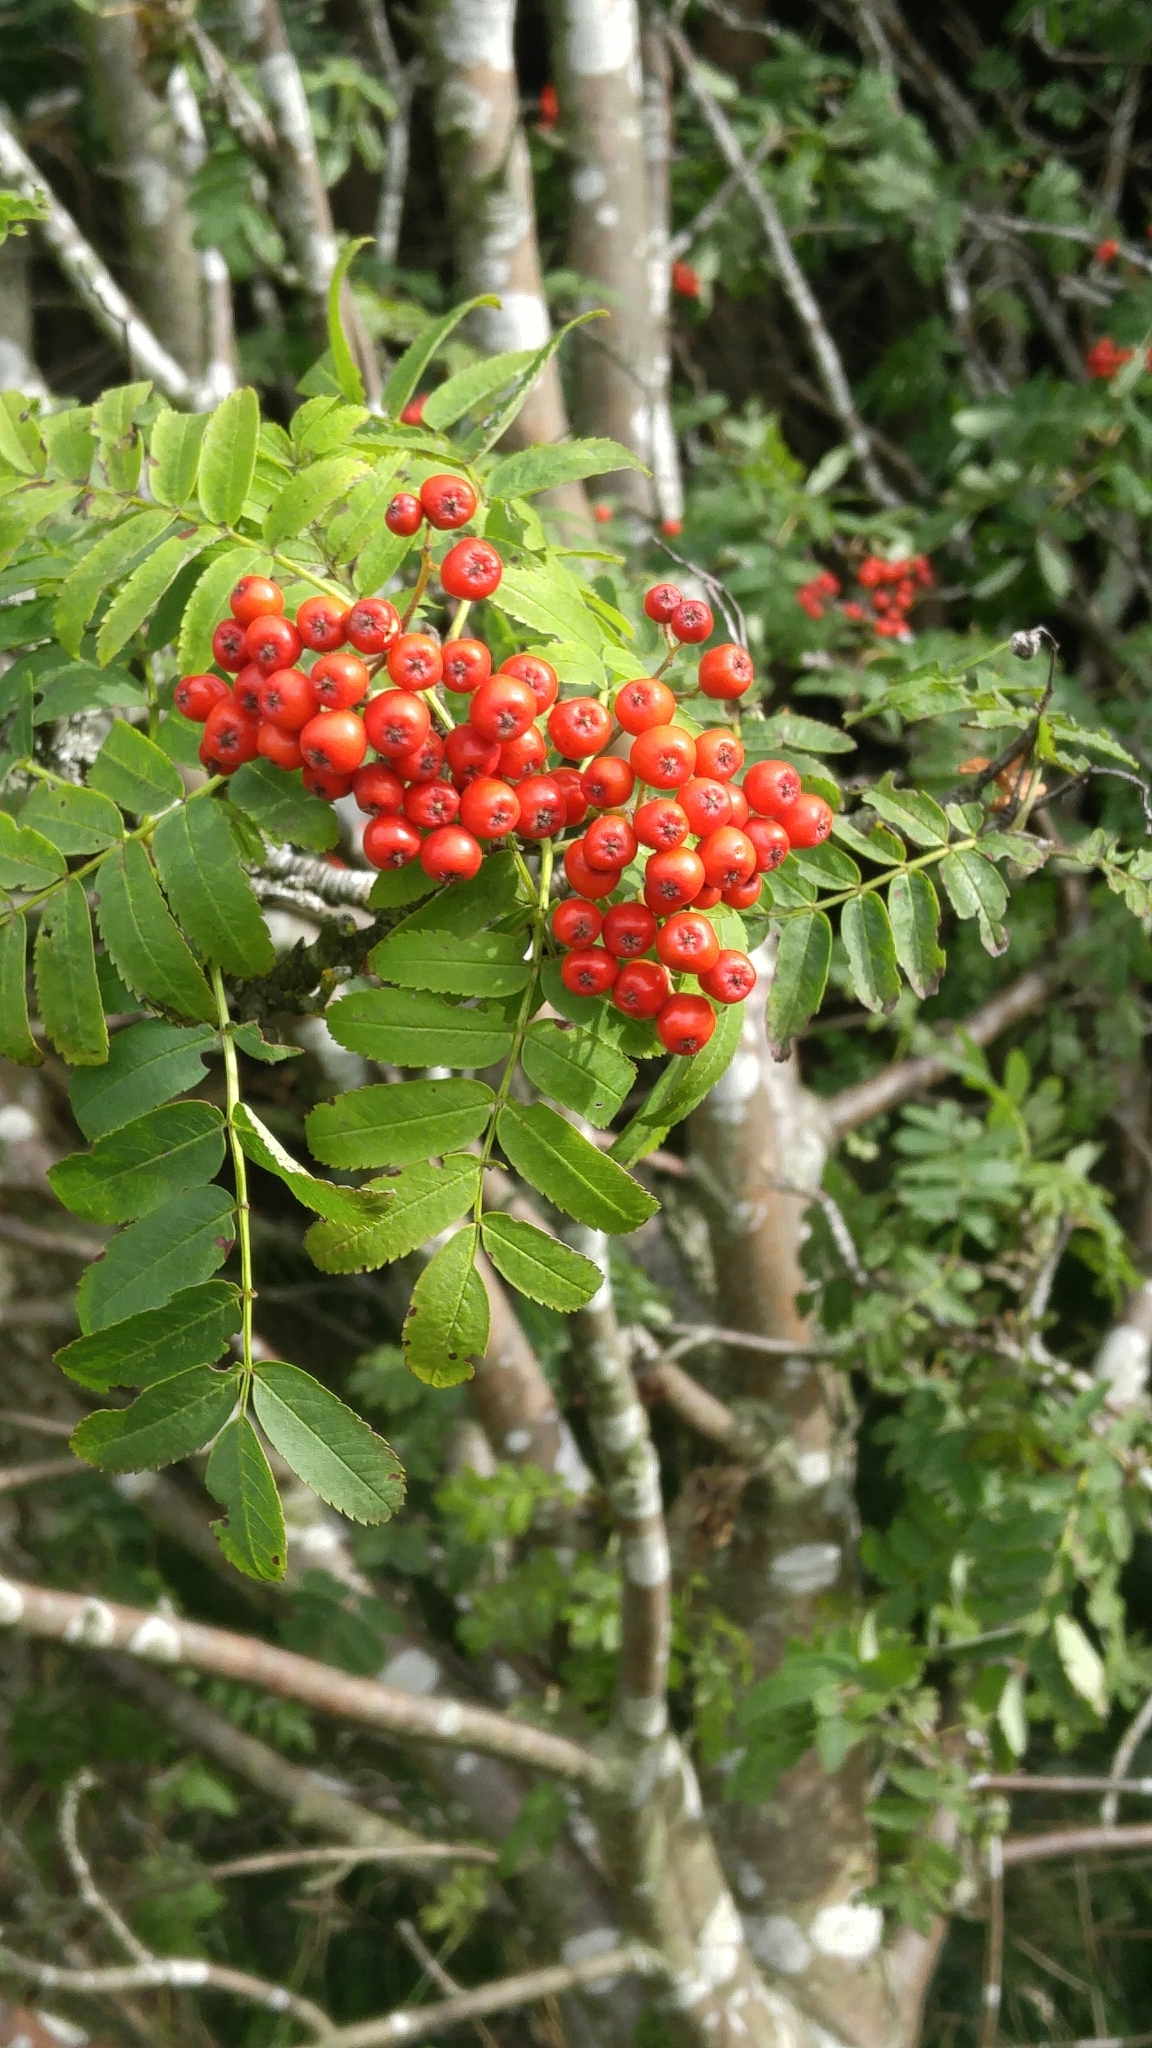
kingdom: Plantae
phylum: Tracheophyta
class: Magnoliopsida
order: Rosales
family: Rosaceae
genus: Sorbus
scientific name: Sorbus aucuparia
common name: Rowan
